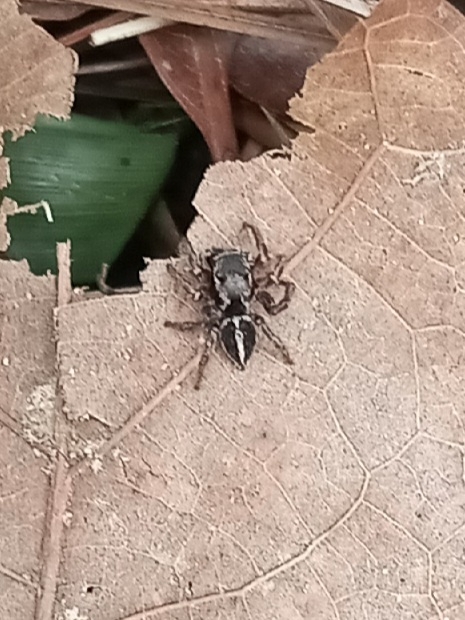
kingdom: Animalia
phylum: Arthropoda
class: Arachnida
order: Araneae
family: Salticidae
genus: Habronattus
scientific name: Habronattus orbus
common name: Orbus paradise spider
